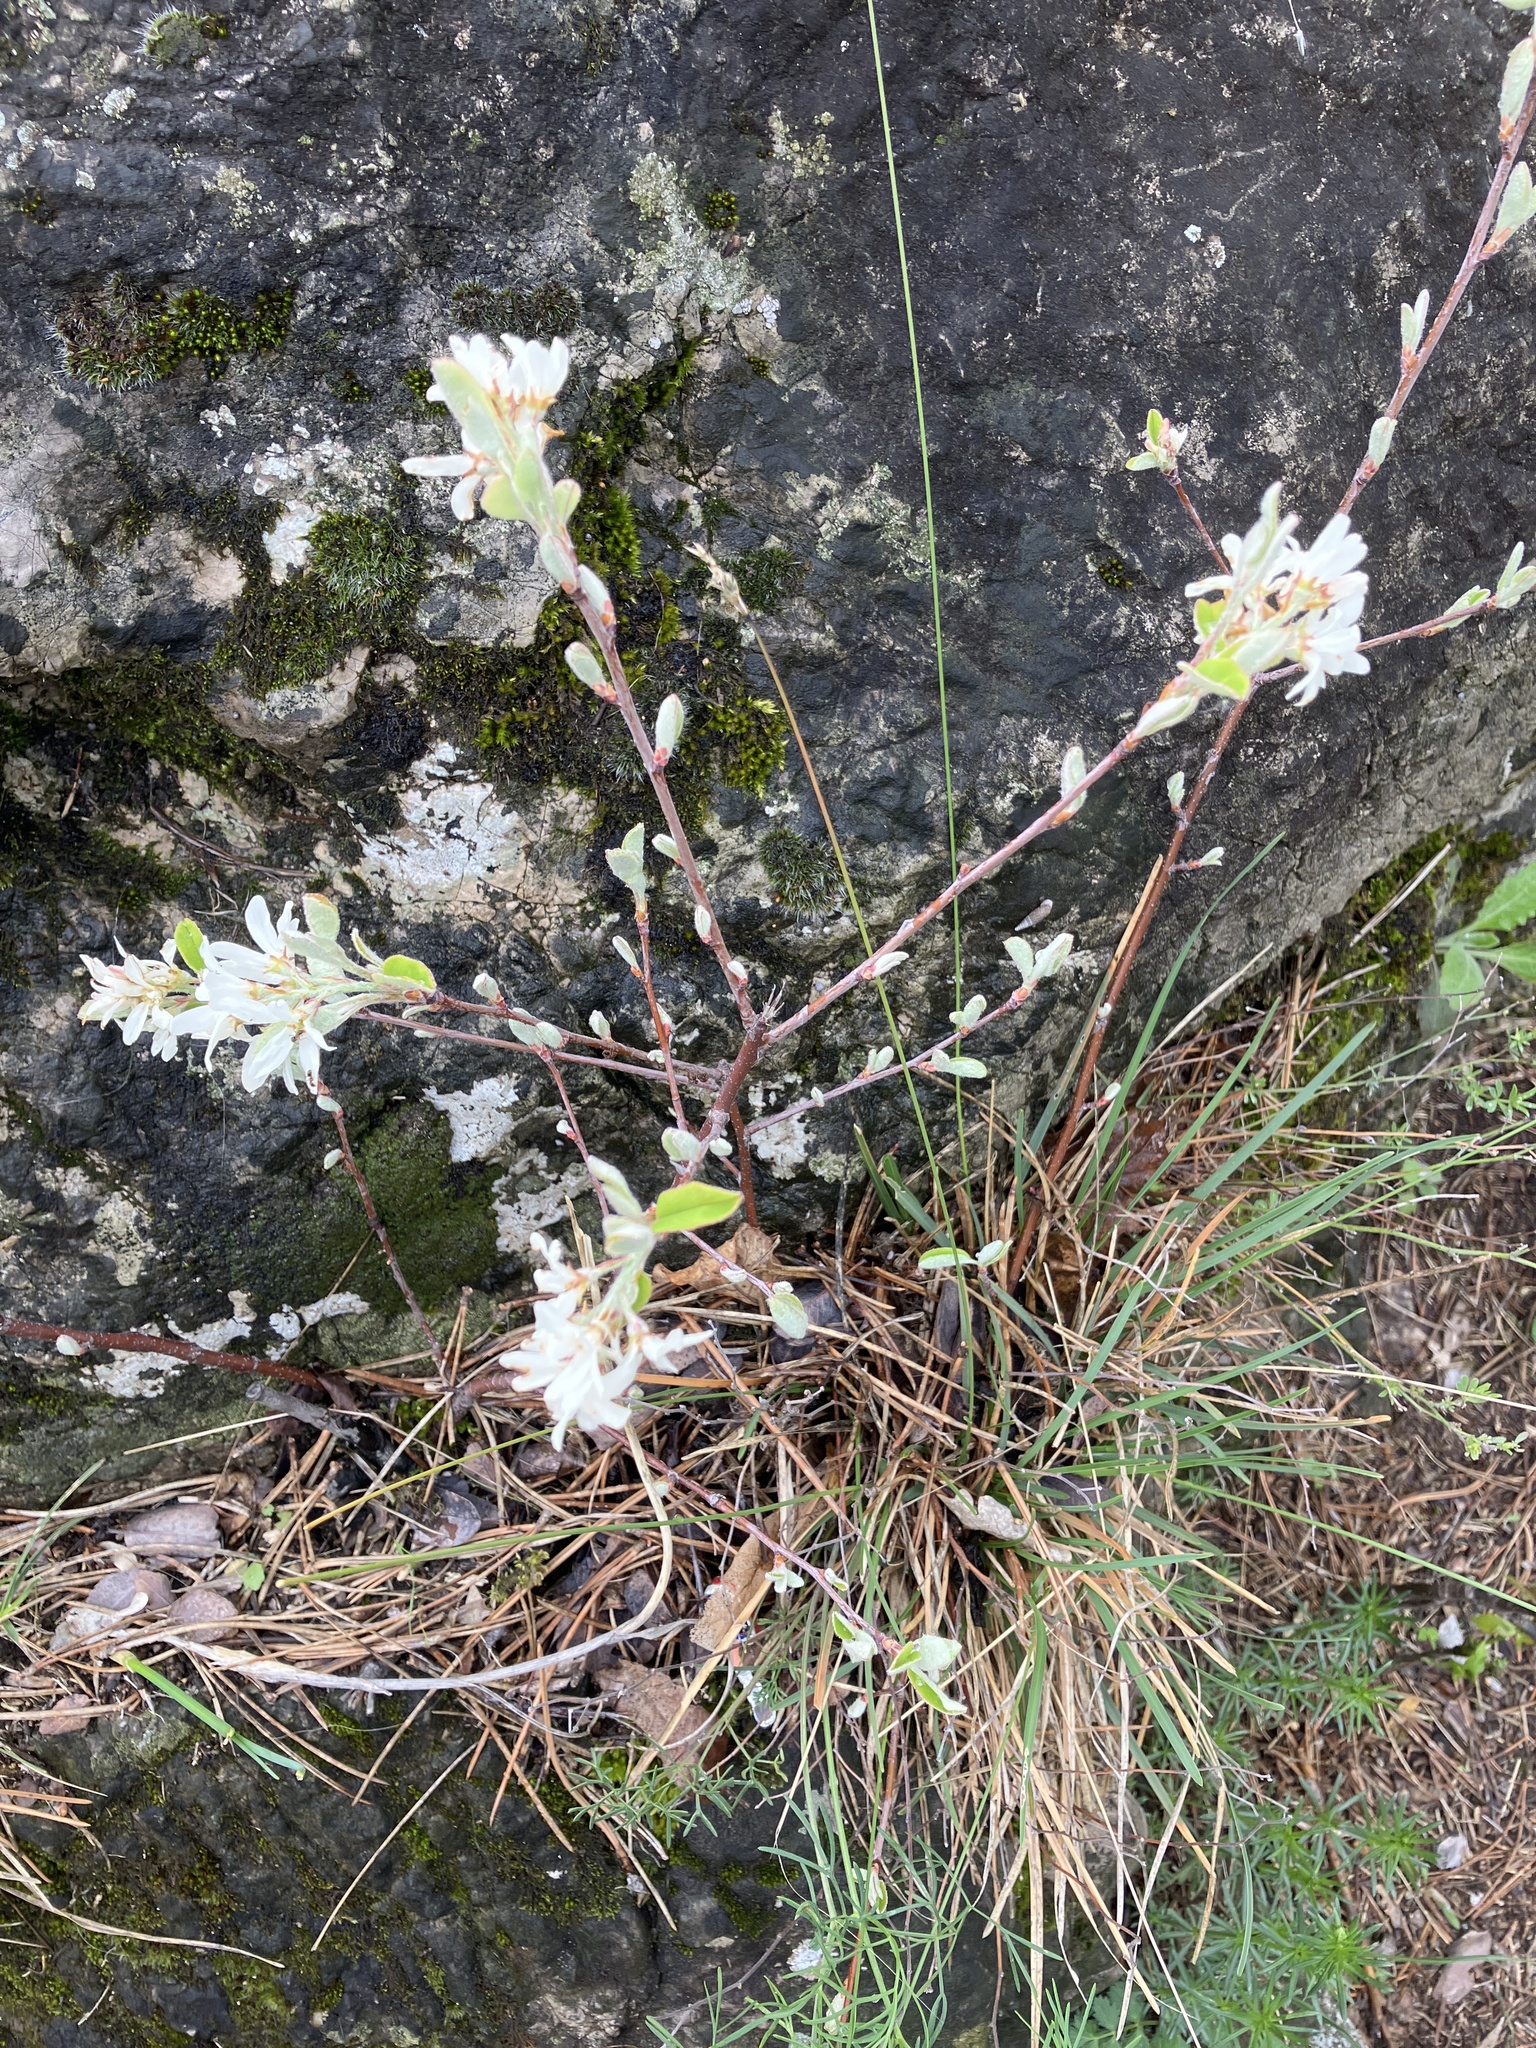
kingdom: Plantae
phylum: Tracheophyta
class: Magnoliopsida
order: Rosales
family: Rosaceae
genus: Amelanchier
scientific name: Amelanchier ovalis
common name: Serviceberry
